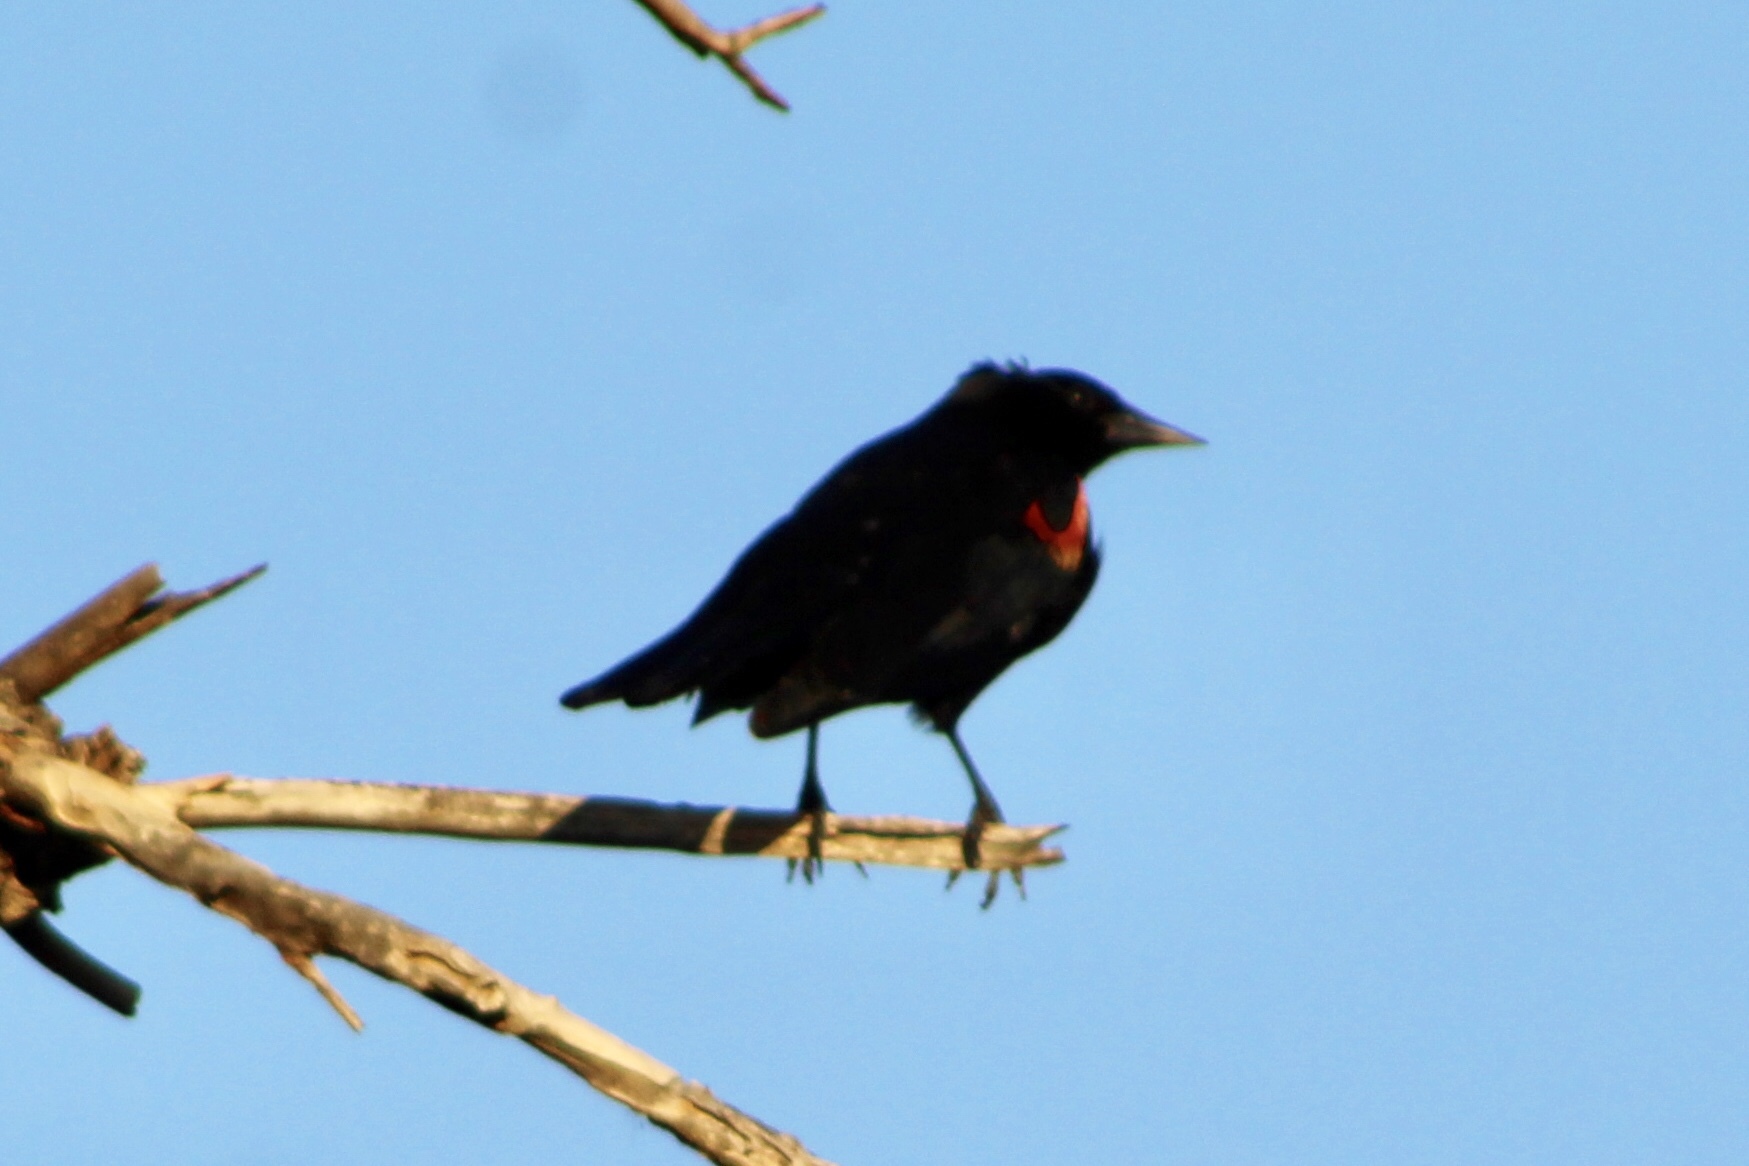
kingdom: Animalia
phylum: Chordata
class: Aves
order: Passeriformes
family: Icteridae
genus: Agelaius
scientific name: Agelaius phoeniceus
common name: Red-winged blackbird
